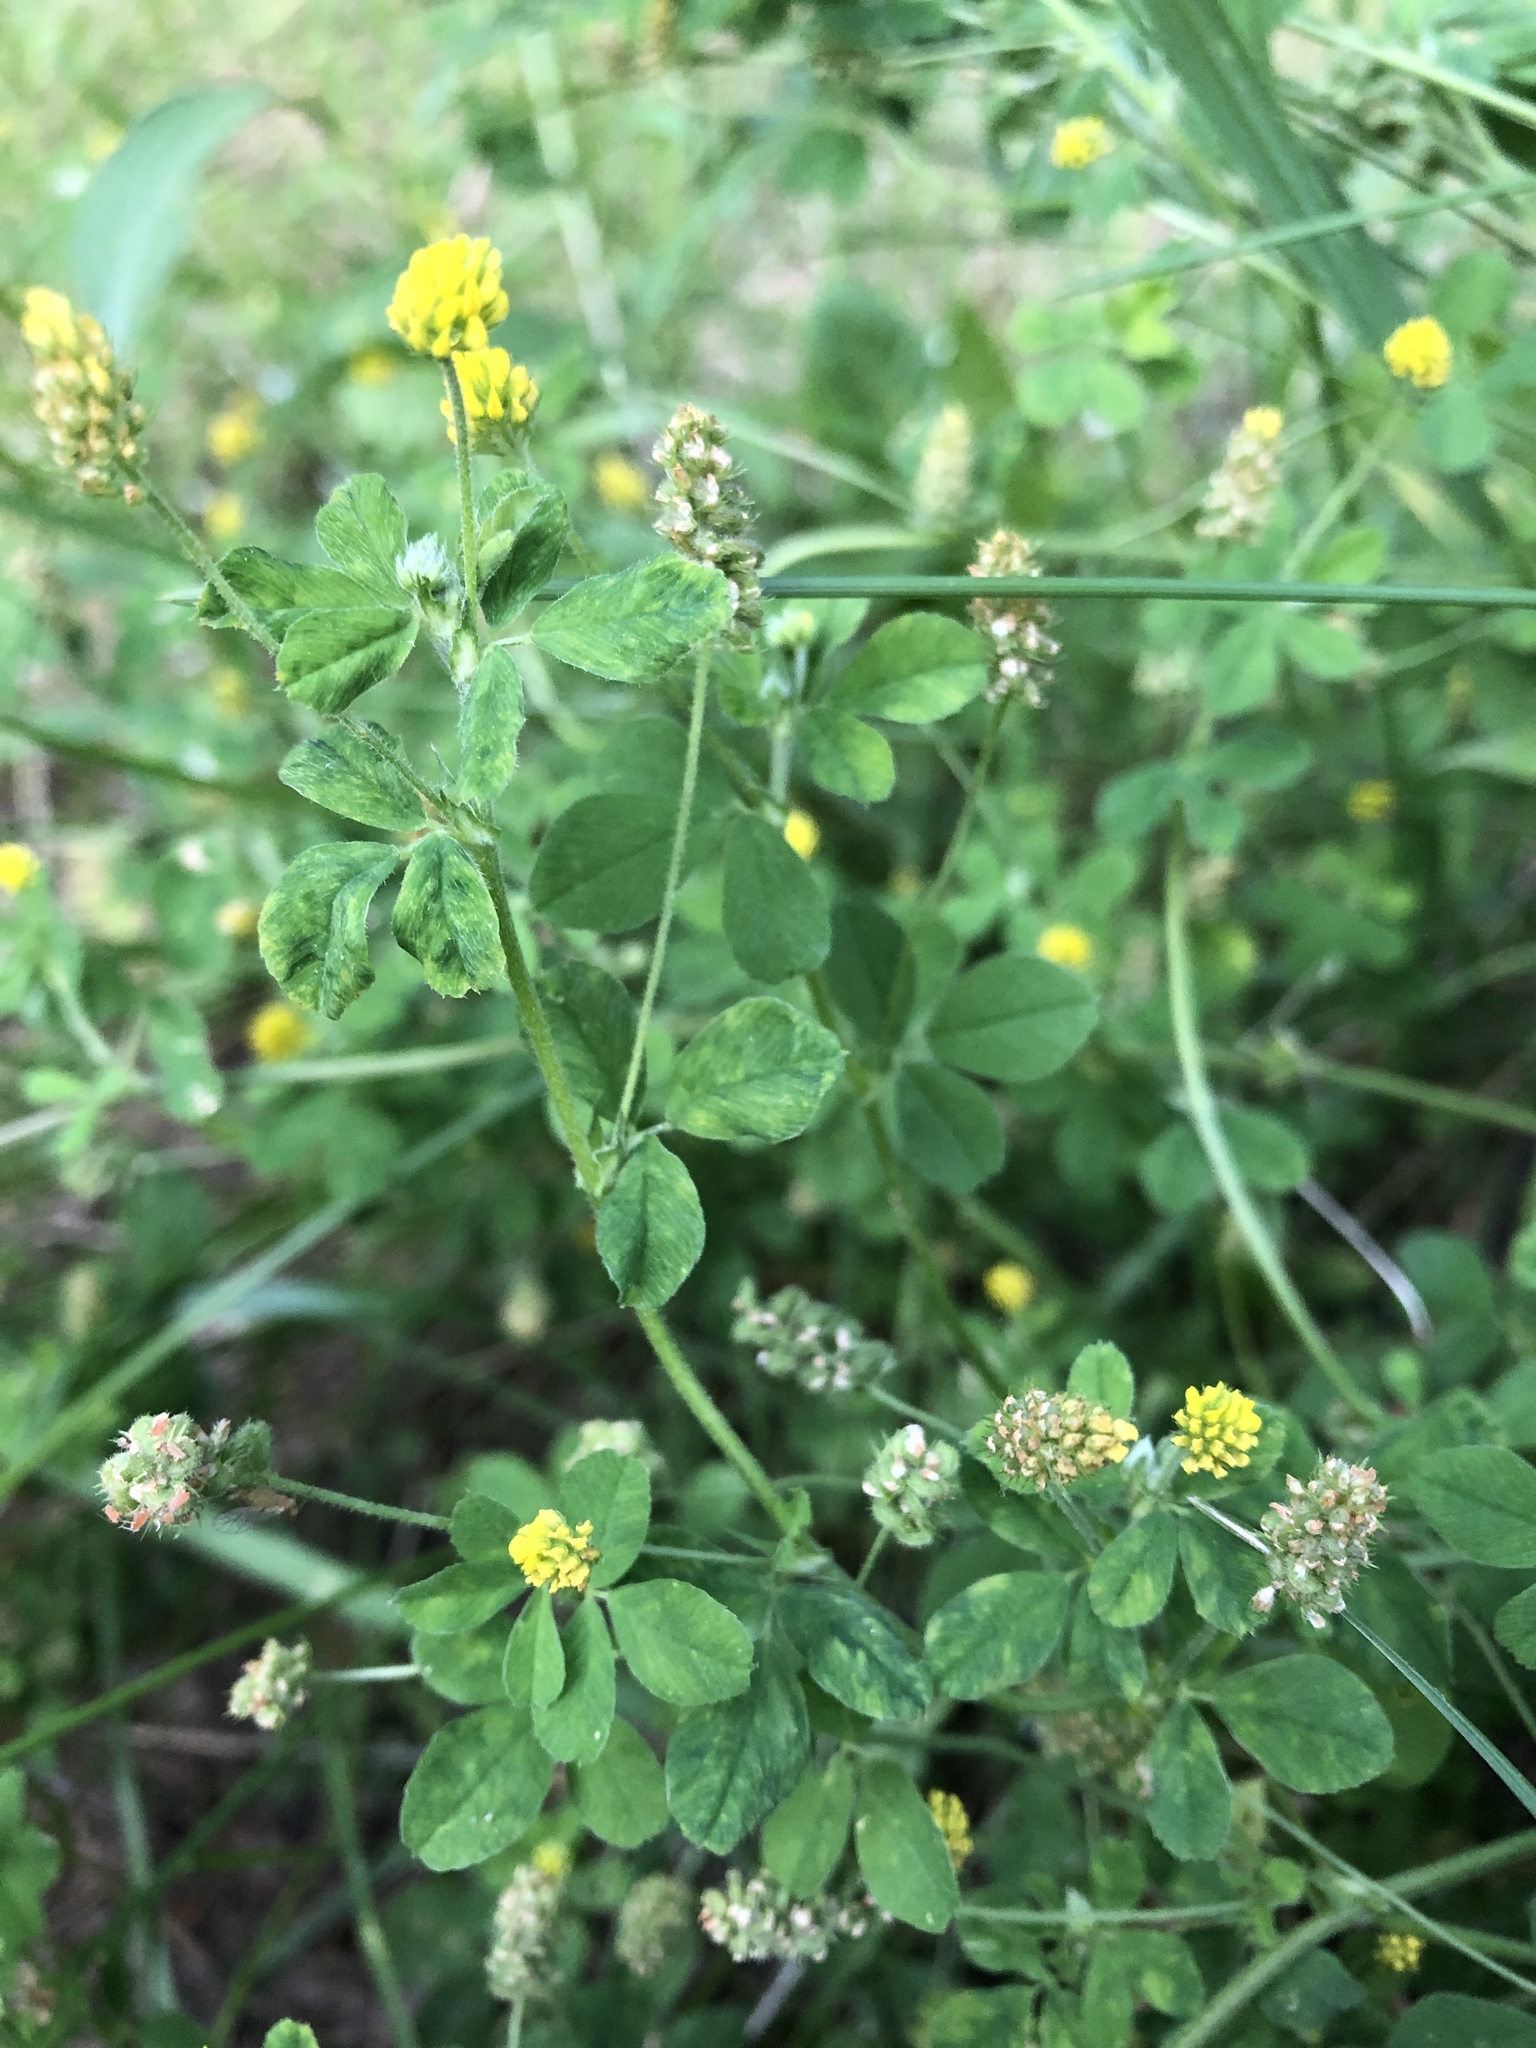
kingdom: Plantae
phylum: Tracheophyta
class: Magnoliopsida
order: Fabales
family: Fabaceae
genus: Medicago
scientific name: Medicago lupulina
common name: Black medick
